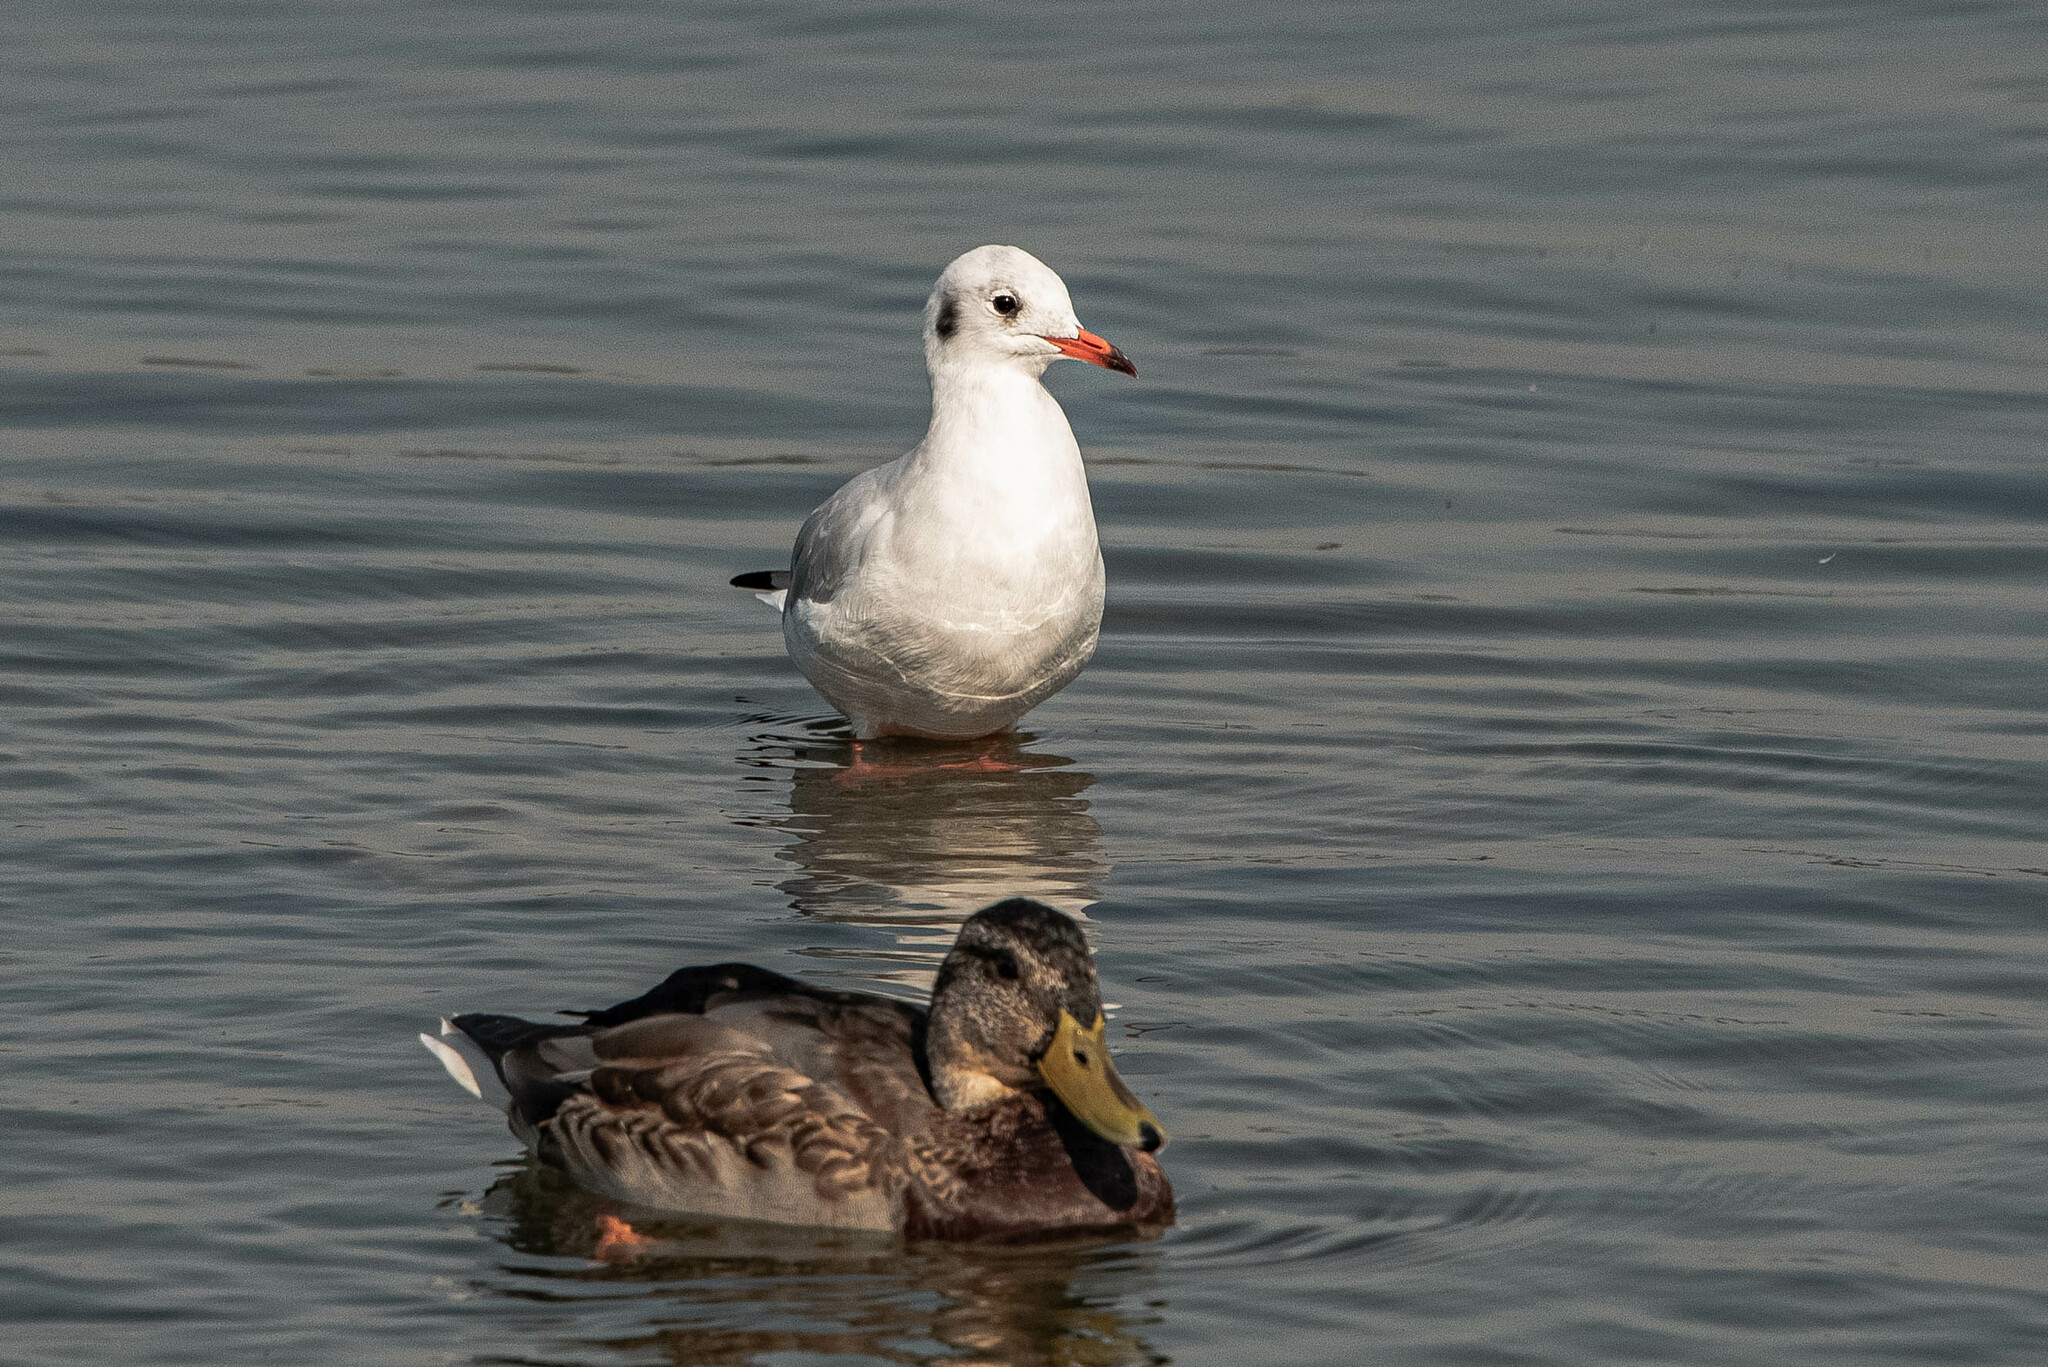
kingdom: Animalia
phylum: Chordata
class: Aves
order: Charadriiformes
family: Laridae
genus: Chroicocephalus
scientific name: Chroicocephalus ridibundus
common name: Black-headed gull
